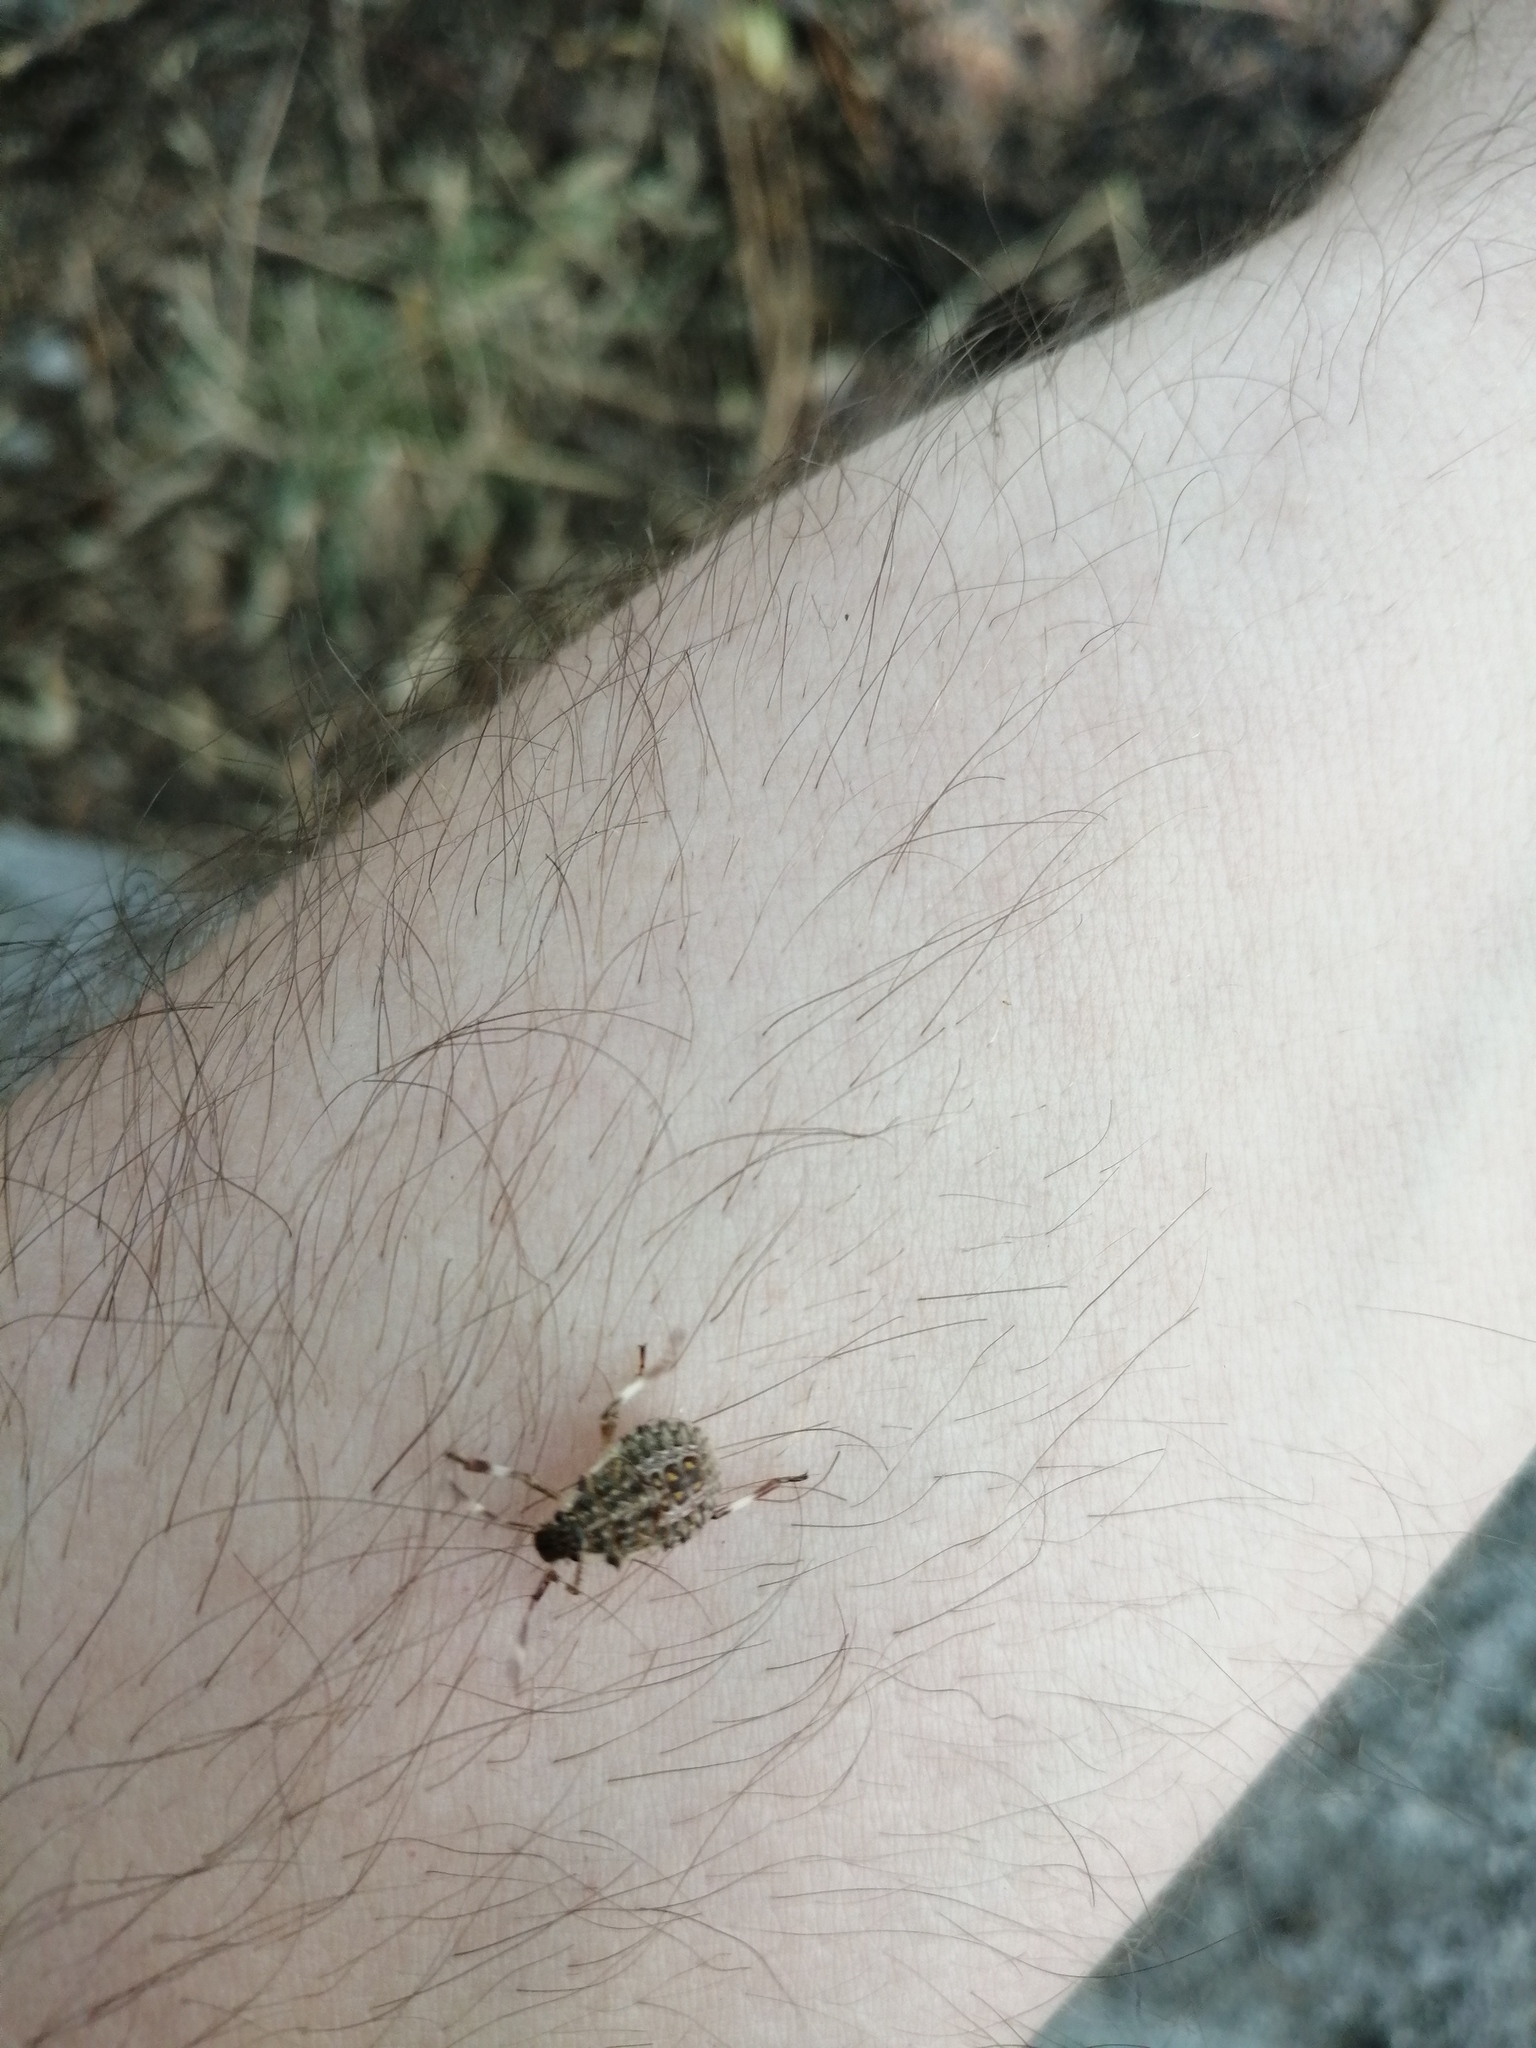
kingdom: Animalia
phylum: Arthropoda
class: Insecta
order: Hemiptera
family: Pentatomidae
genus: Halyomorpha
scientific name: Halyomorpha halys
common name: Brown marmorated stink bug
